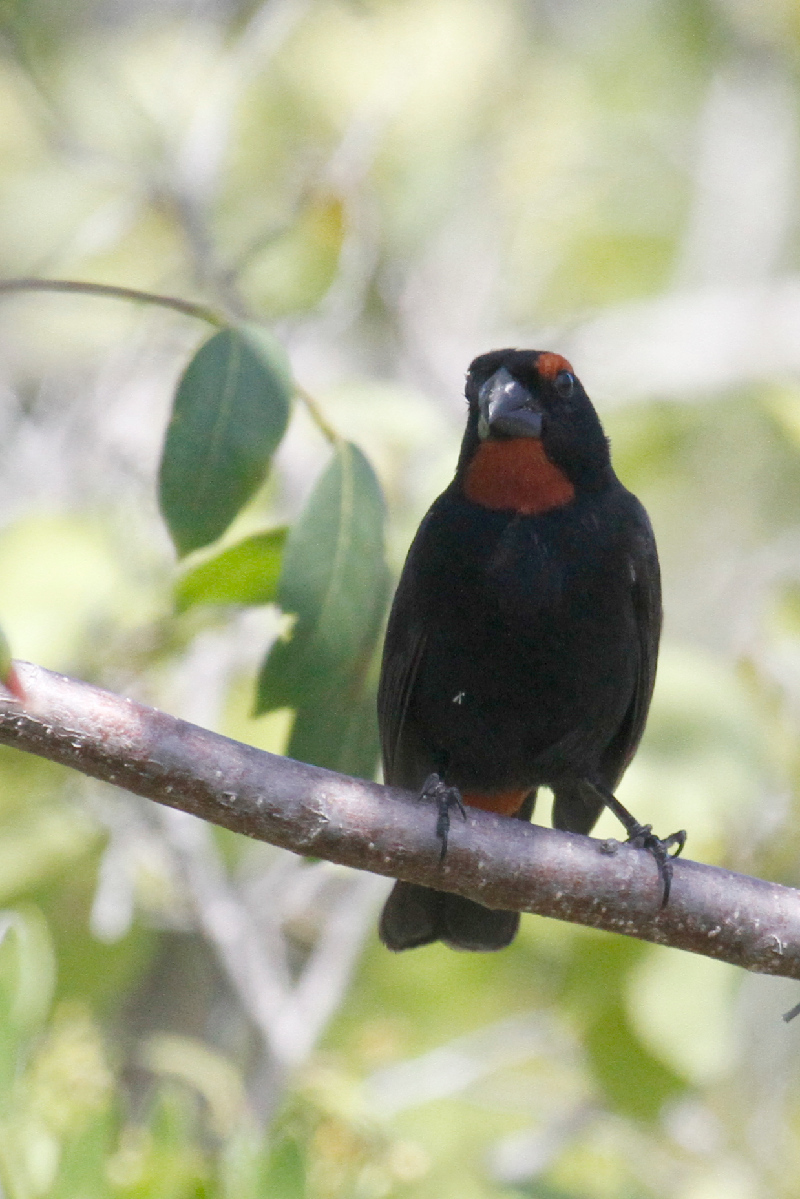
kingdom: Animalia
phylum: Chordata
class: Aves
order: Passeriformes
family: Thraupidae
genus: Melopyrrha
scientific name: Melopyrrha violacea
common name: Greater antillean bullfinch
